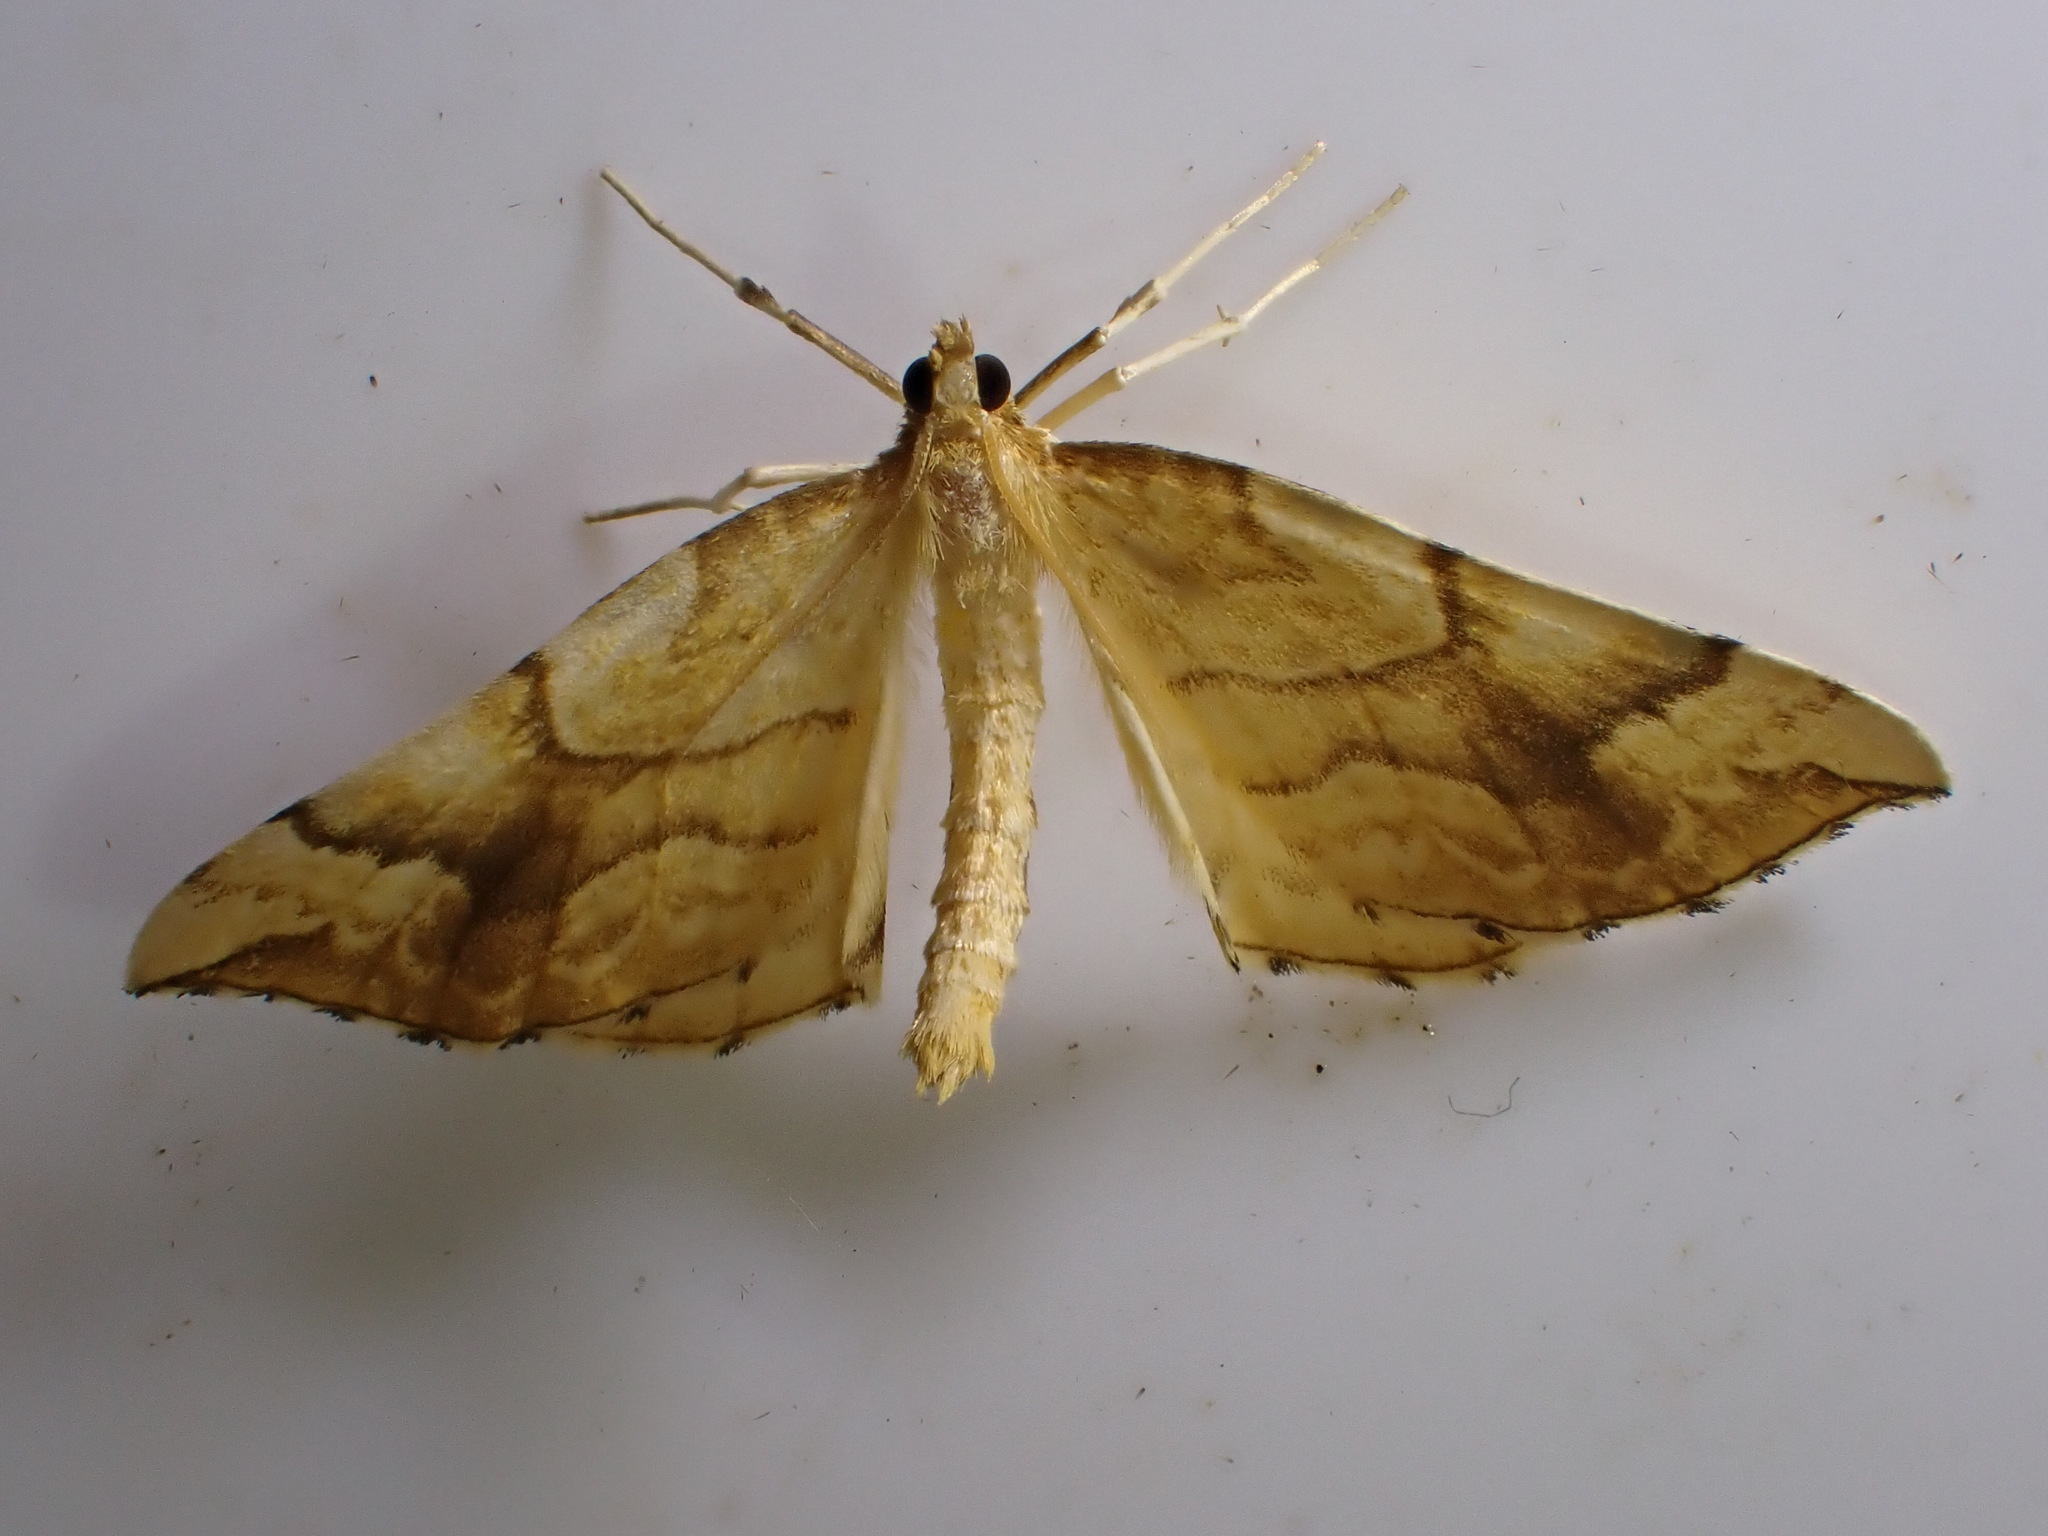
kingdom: Animalia
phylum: Arthropoda
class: Insecta
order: Lepidoptera
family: Geometridae
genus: Eulithis
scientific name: Eulithis mellinata
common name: Spinach
